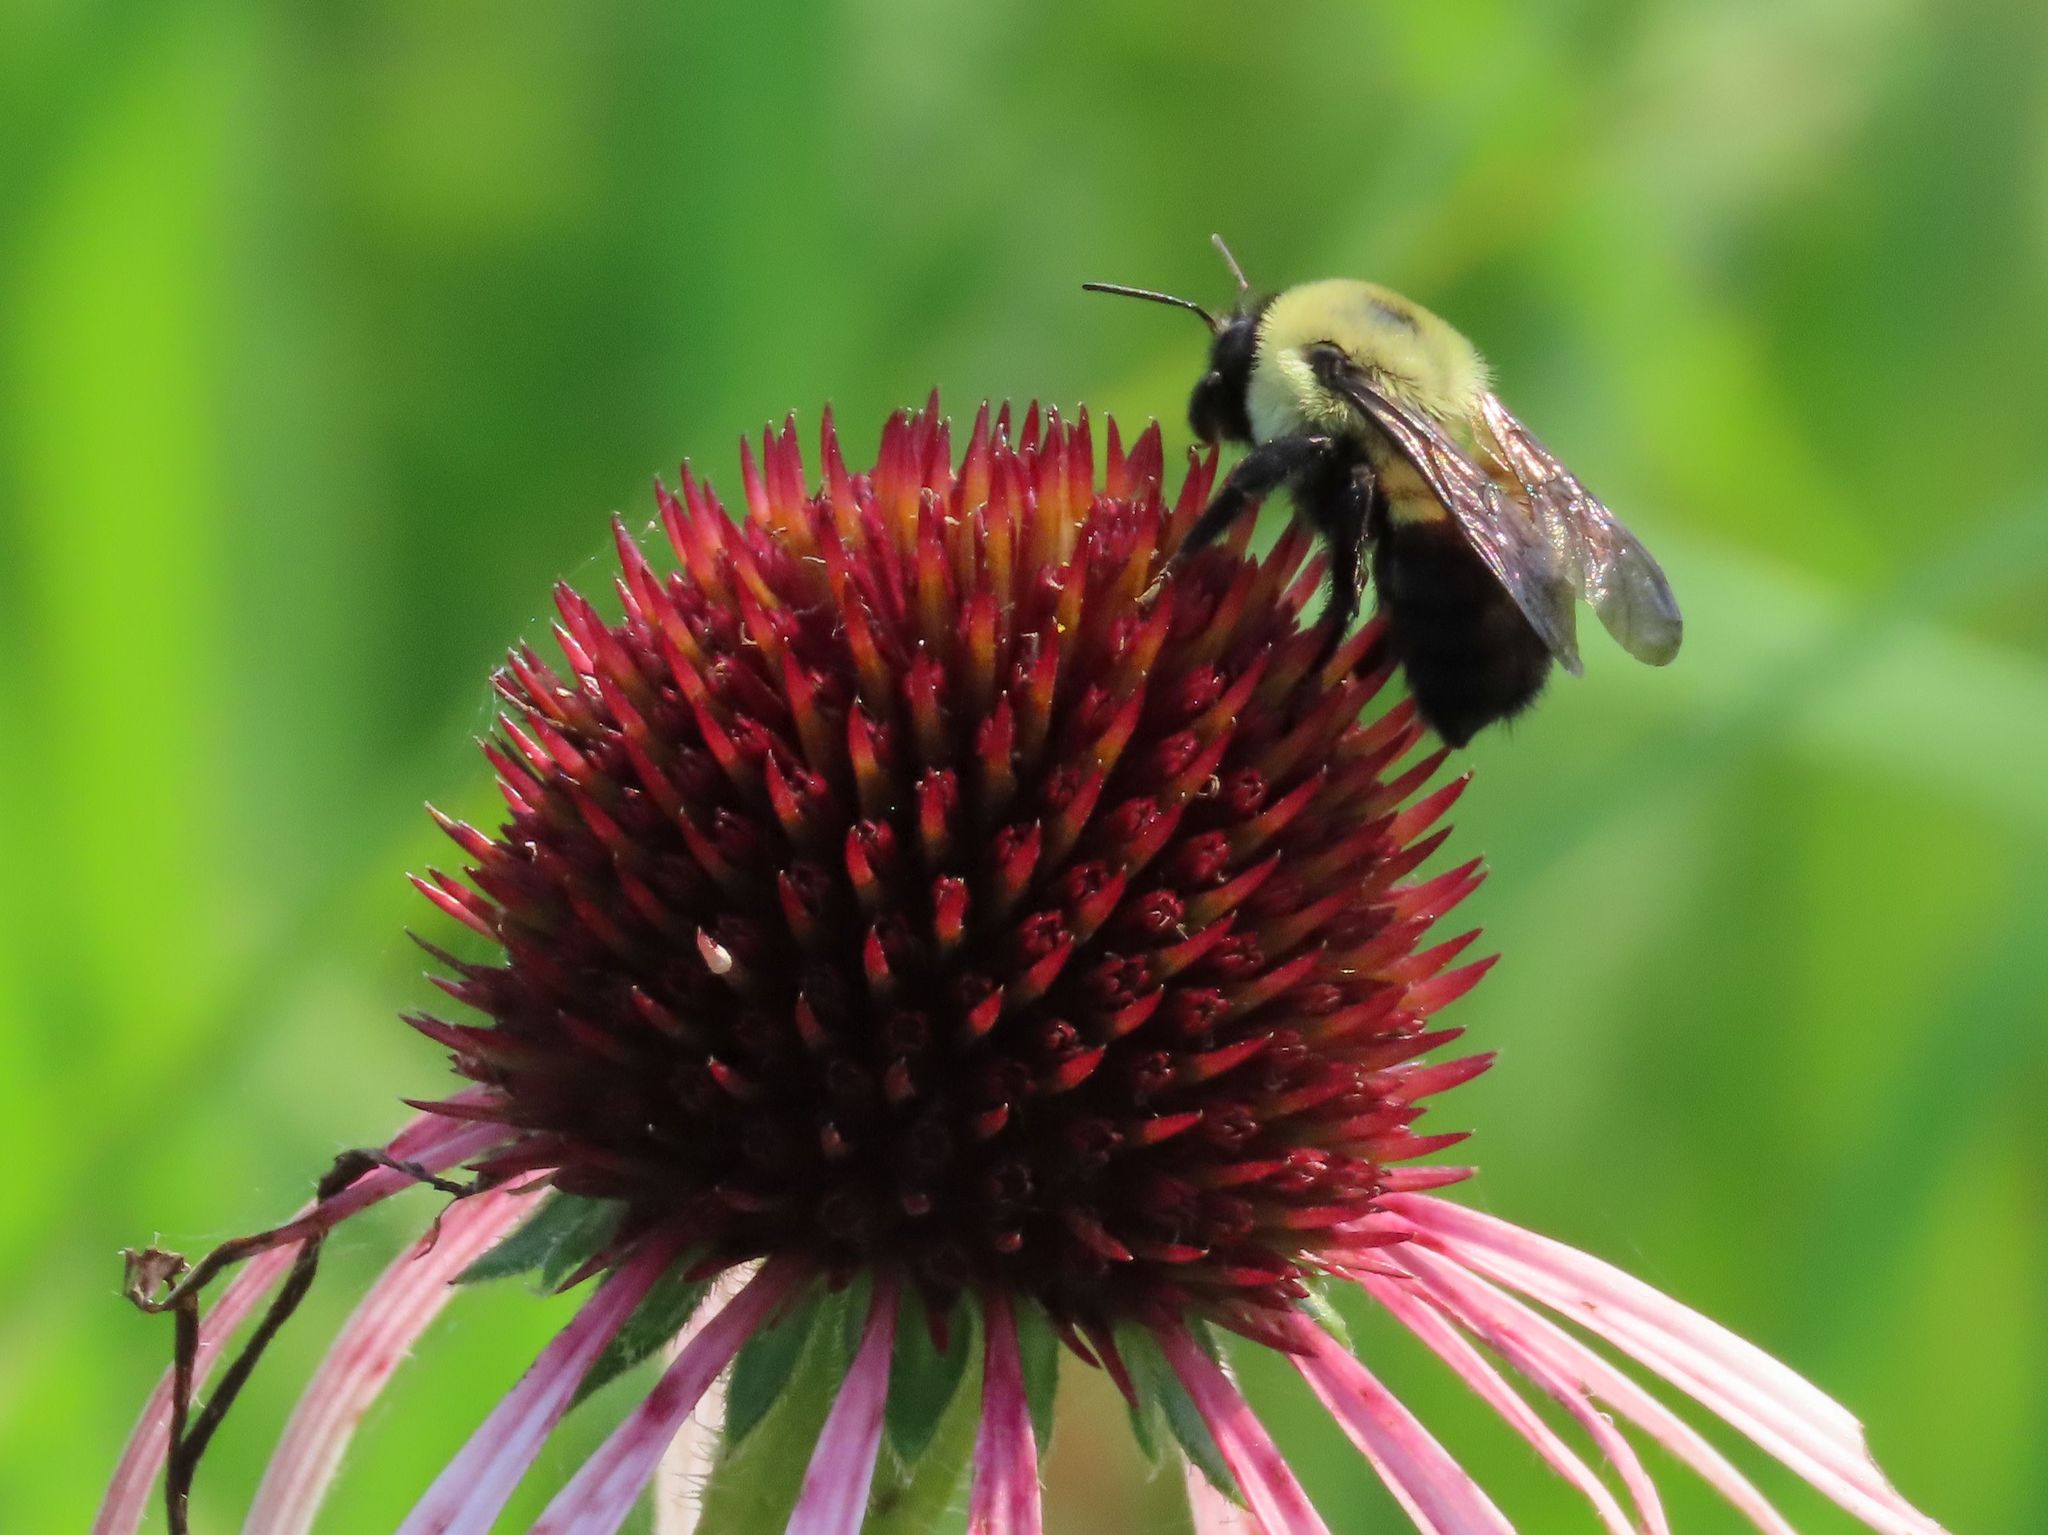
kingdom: Animalia
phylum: Arthropoda
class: Insecta
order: Hymenoptera
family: Apidae
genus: Bombus
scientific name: Bombus griseocollis
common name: Brown-belted bumble bee
